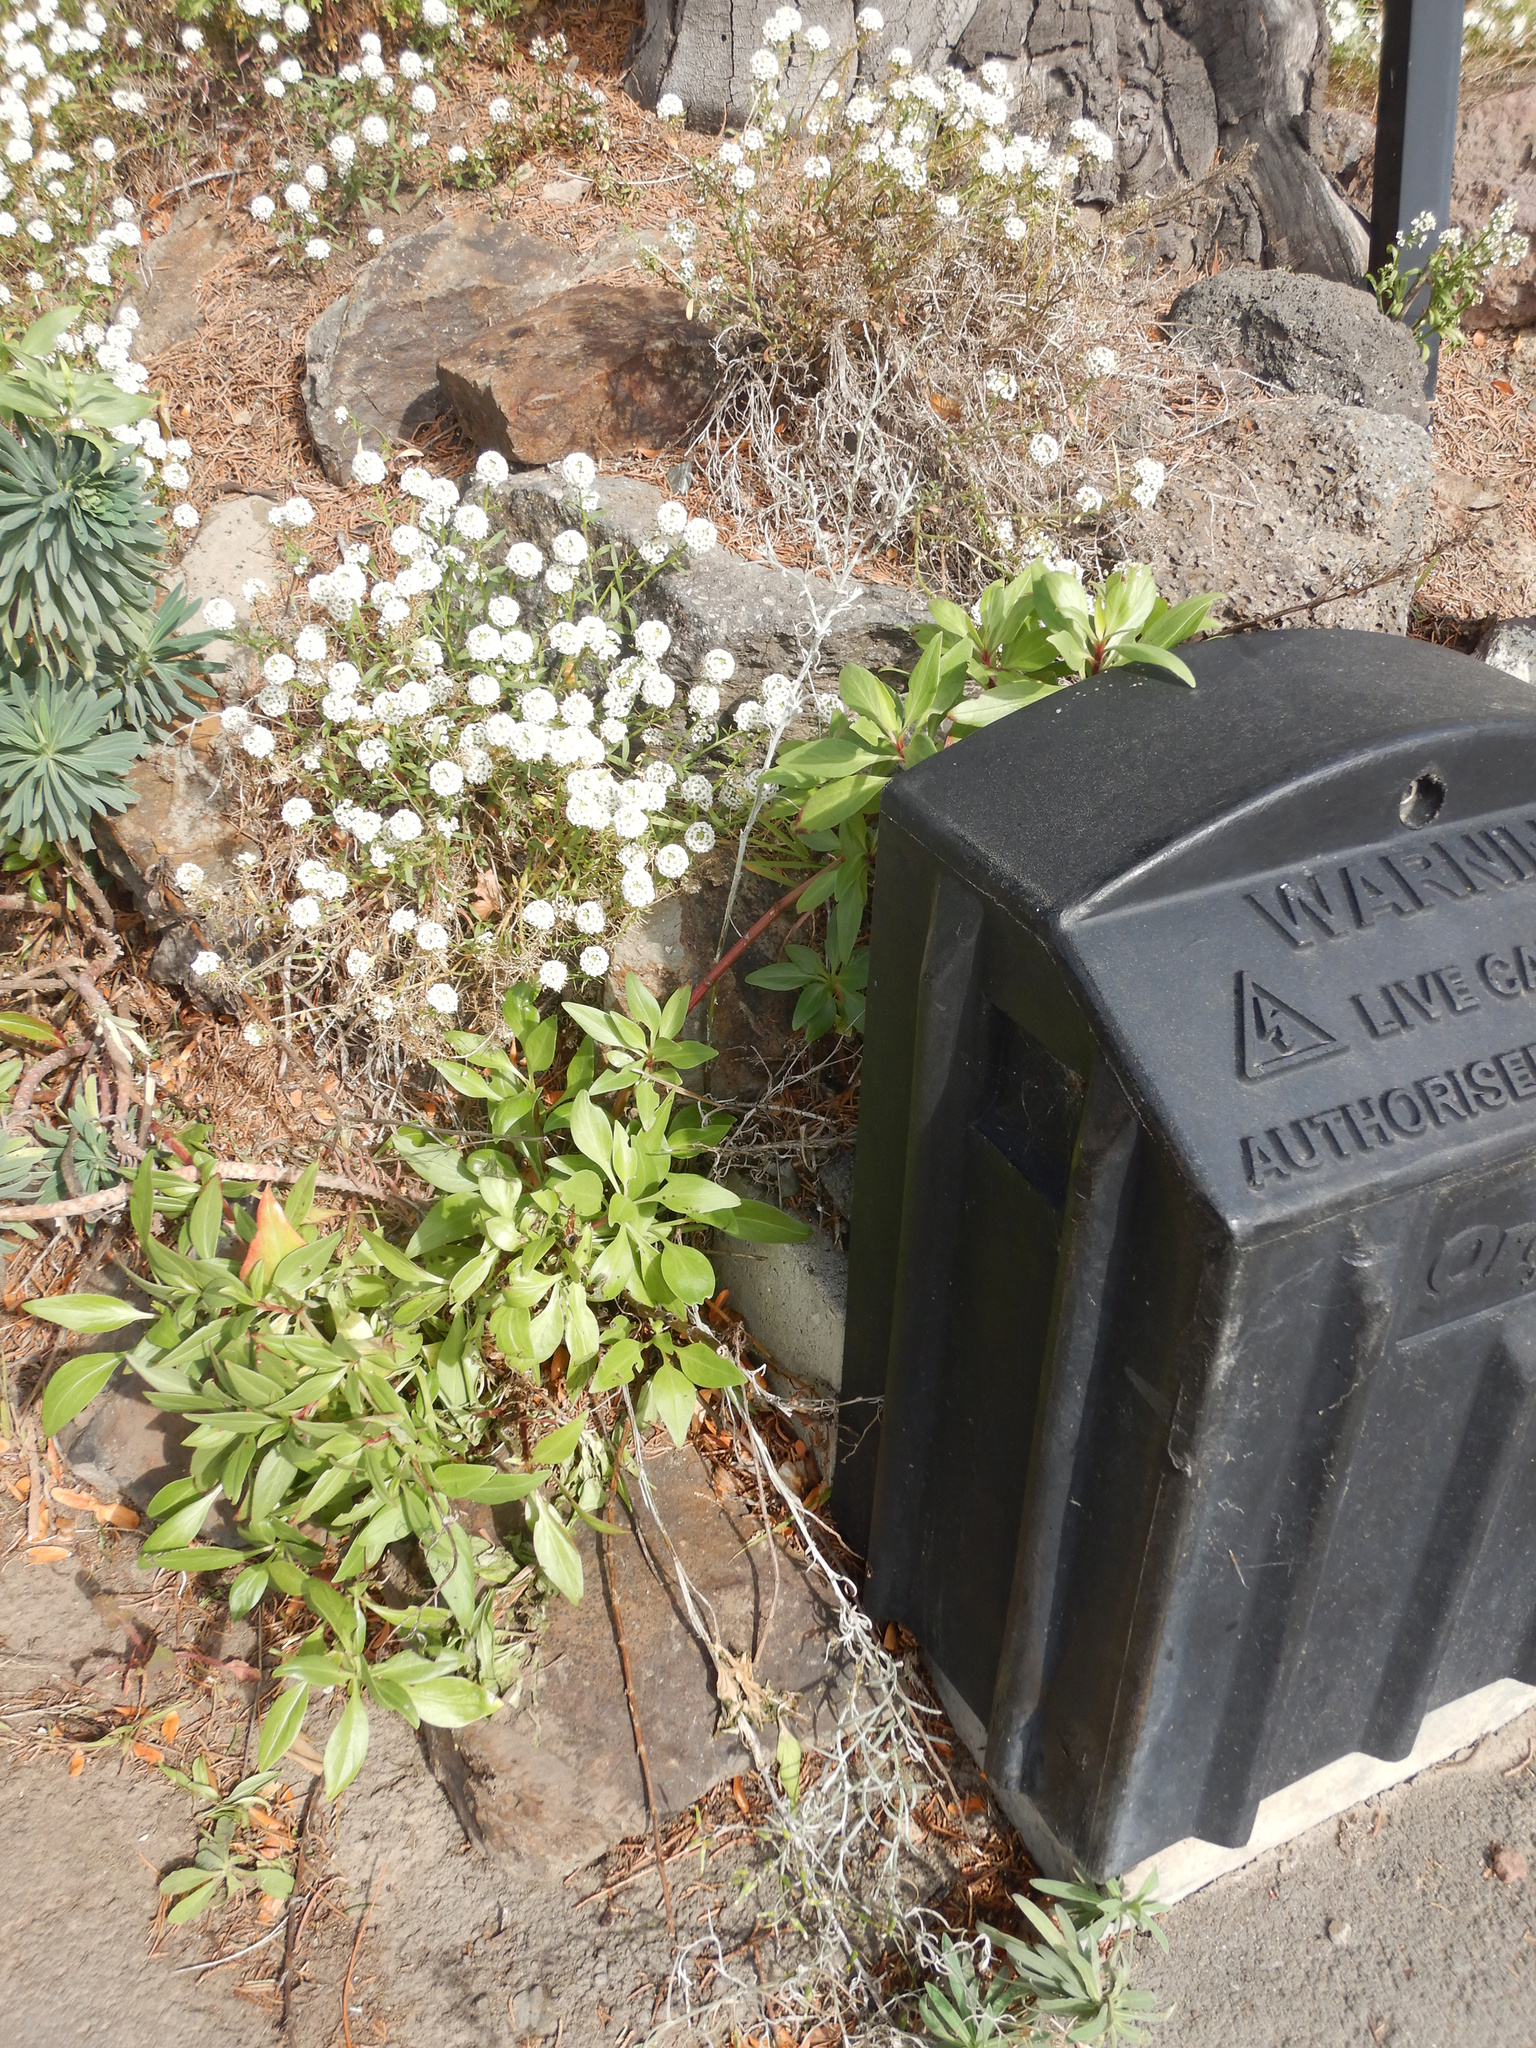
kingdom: Plantae
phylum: Tracheophyta
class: Magnoliopsida
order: Asterales
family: Asteraceae
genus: Senecio
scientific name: Senecio quadridentatus
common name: Cotton fireweed
